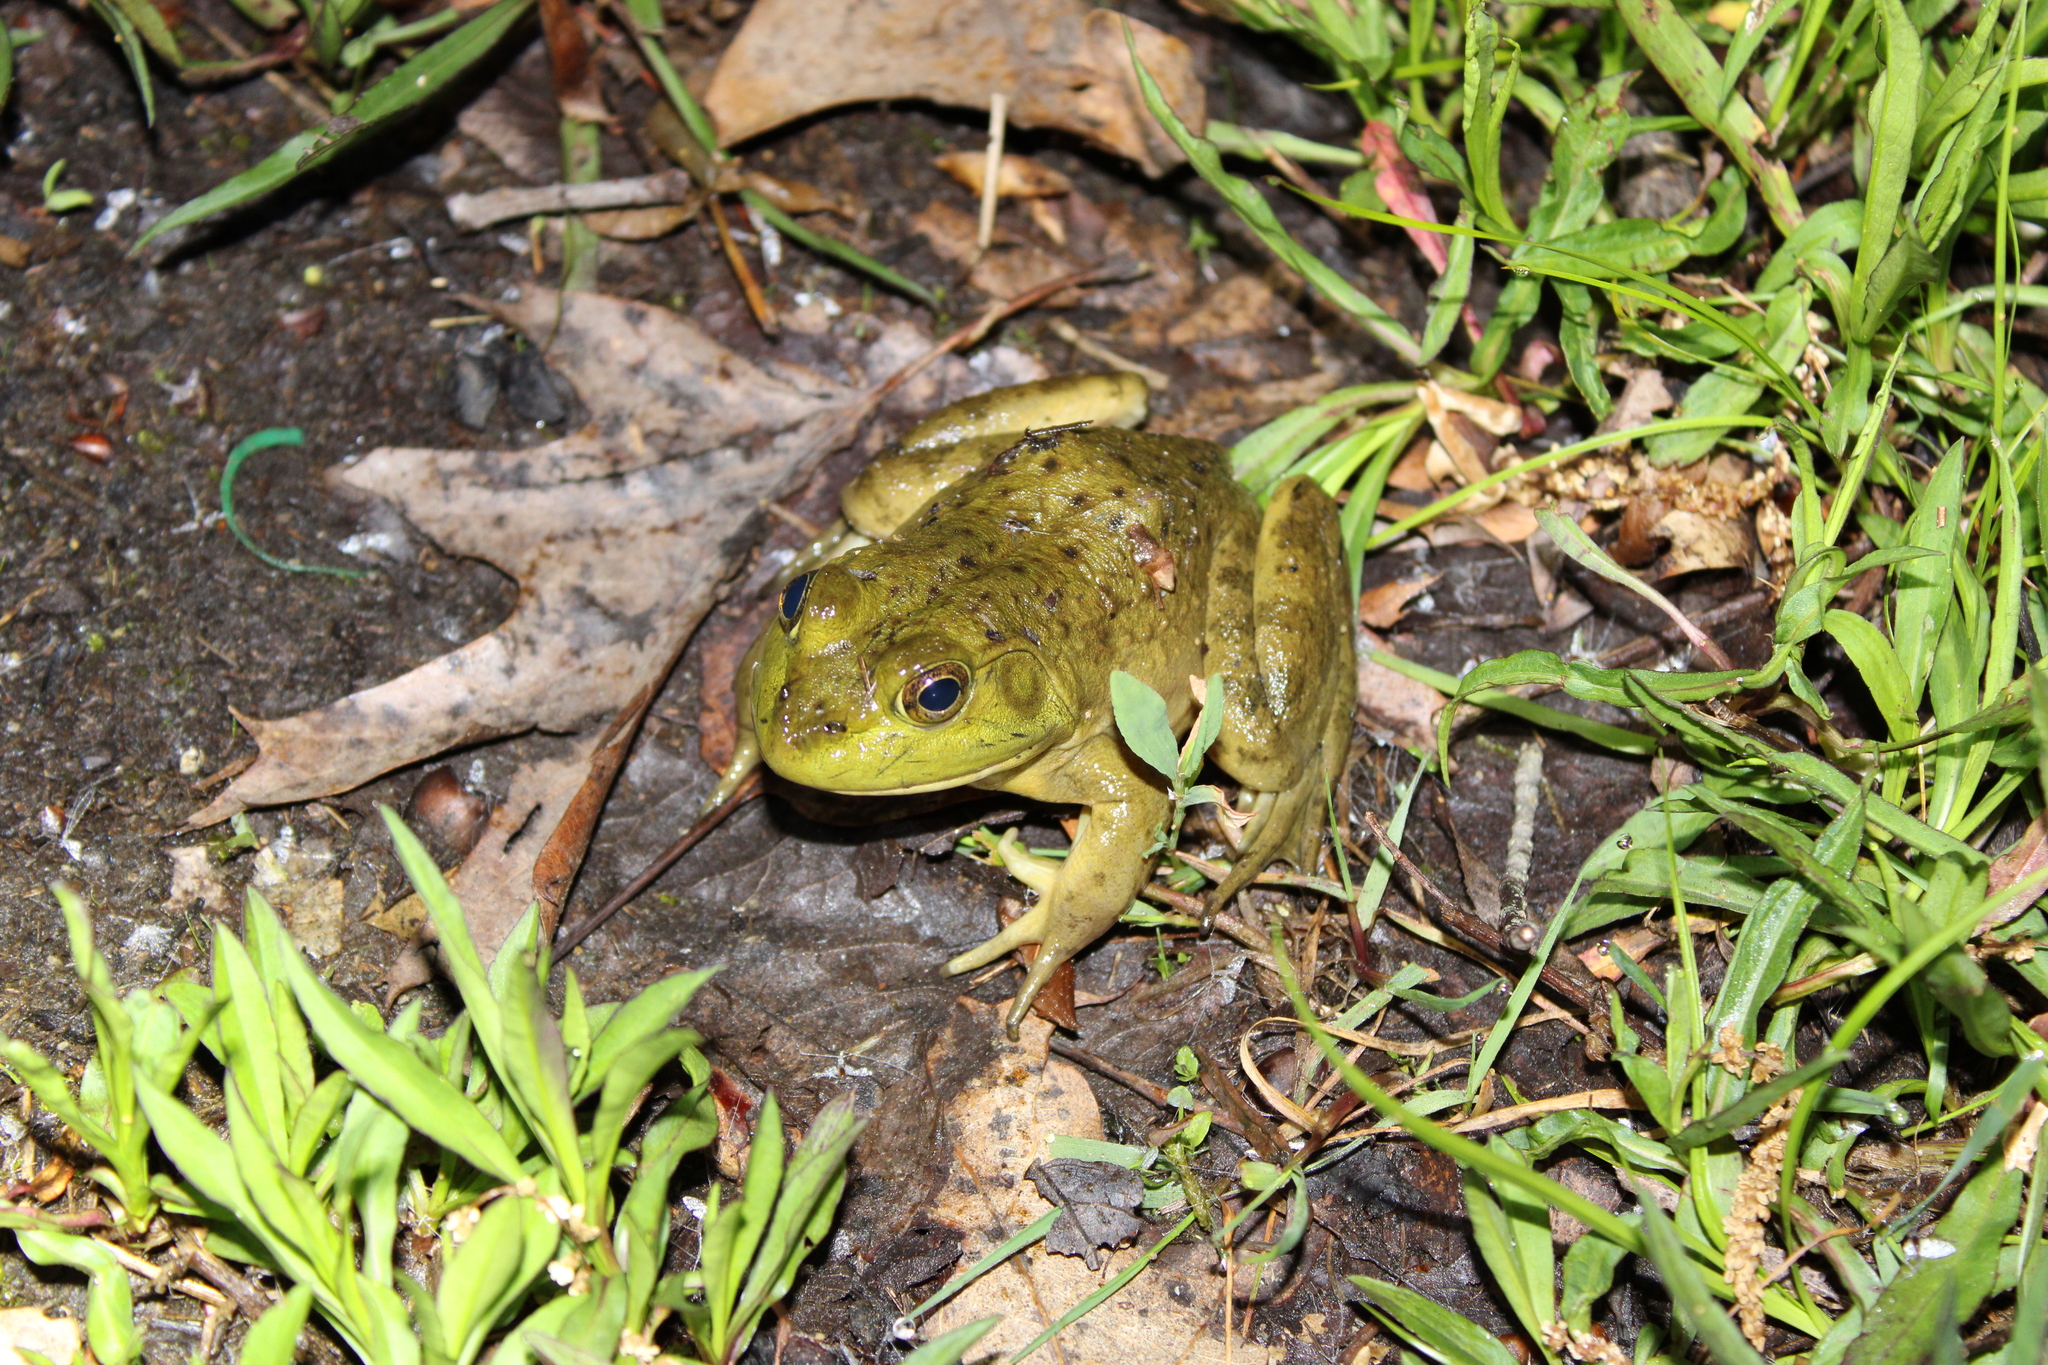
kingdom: Animalia
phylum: Chordata
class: Amphibia
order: Anura
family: Ranidae
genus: Lithobates
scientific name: Lithobates catesbeianus
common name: American bullfrog
